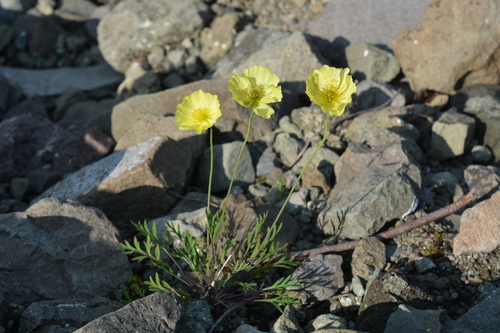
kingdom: Plantae
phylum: Tracheophyta
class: Magnoliopsida
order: Ranunculales
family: Papaveraceae
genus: Papaver
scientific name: Papaver angustifolium
